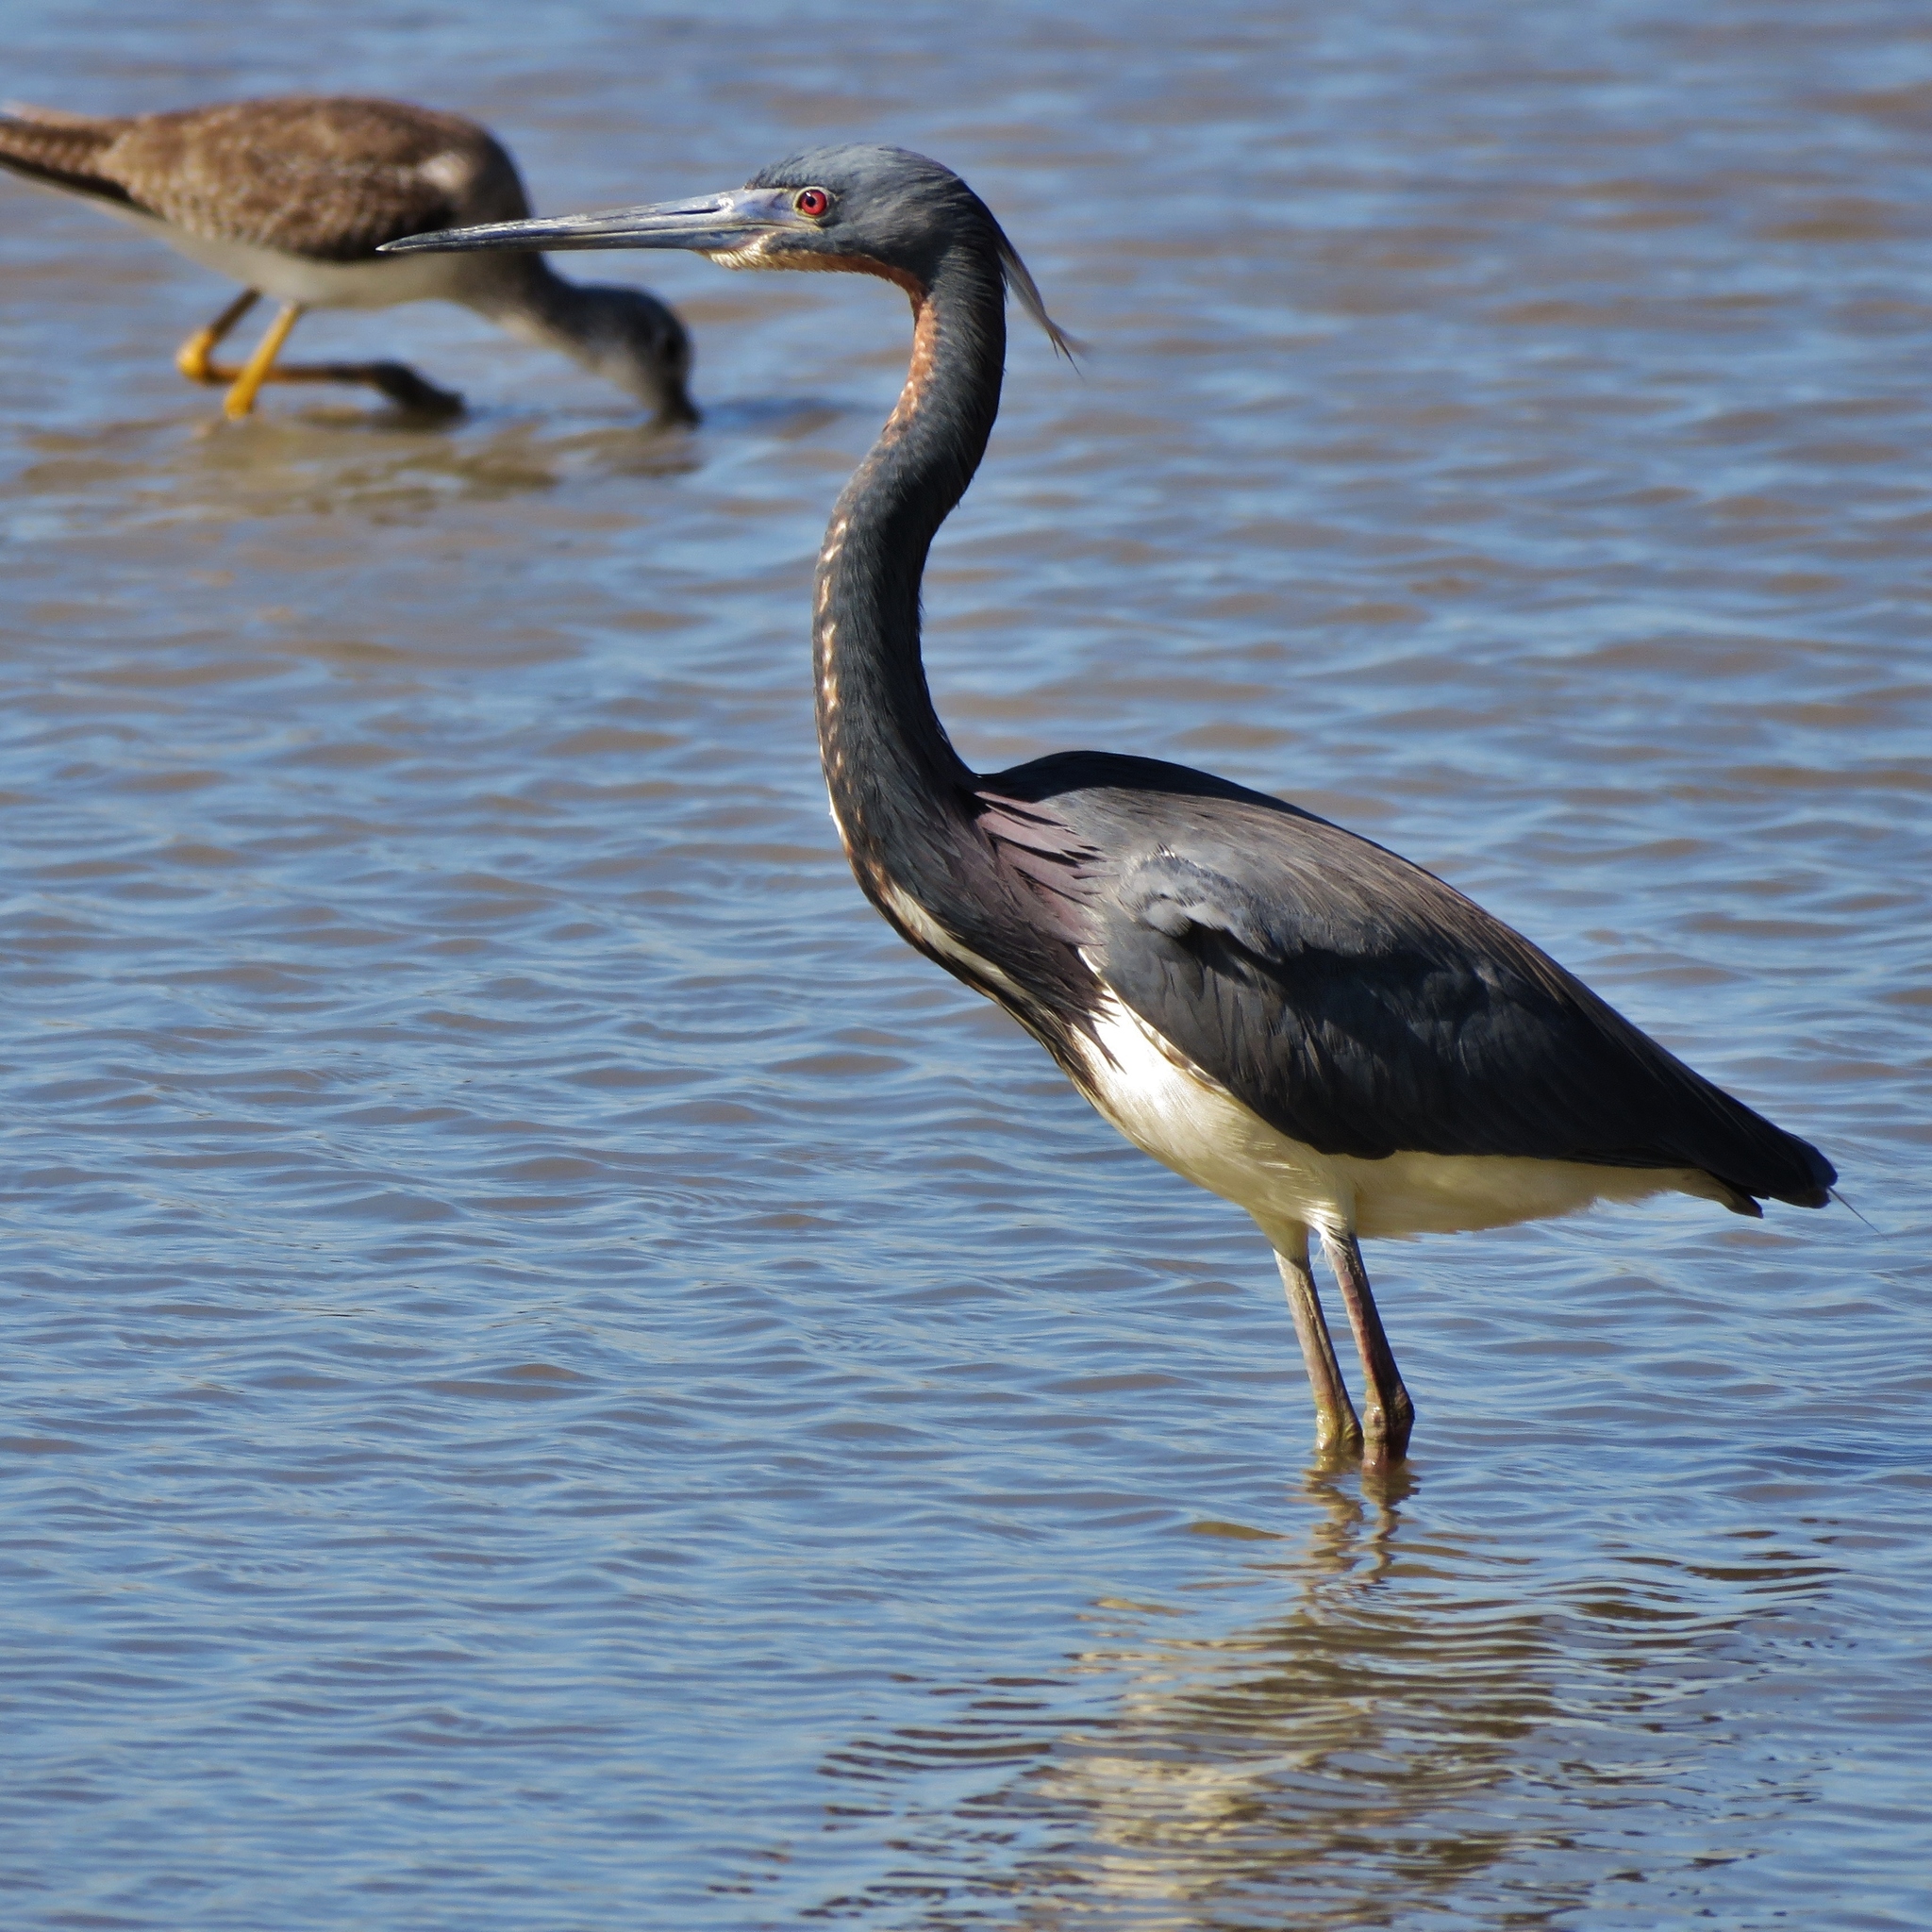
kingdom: Animalia
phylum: Chordata
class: Aves
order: Pelecaniformes
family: Ardeidae
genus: Egretta
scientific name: Egretta tricolor
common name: Tricolored heron
